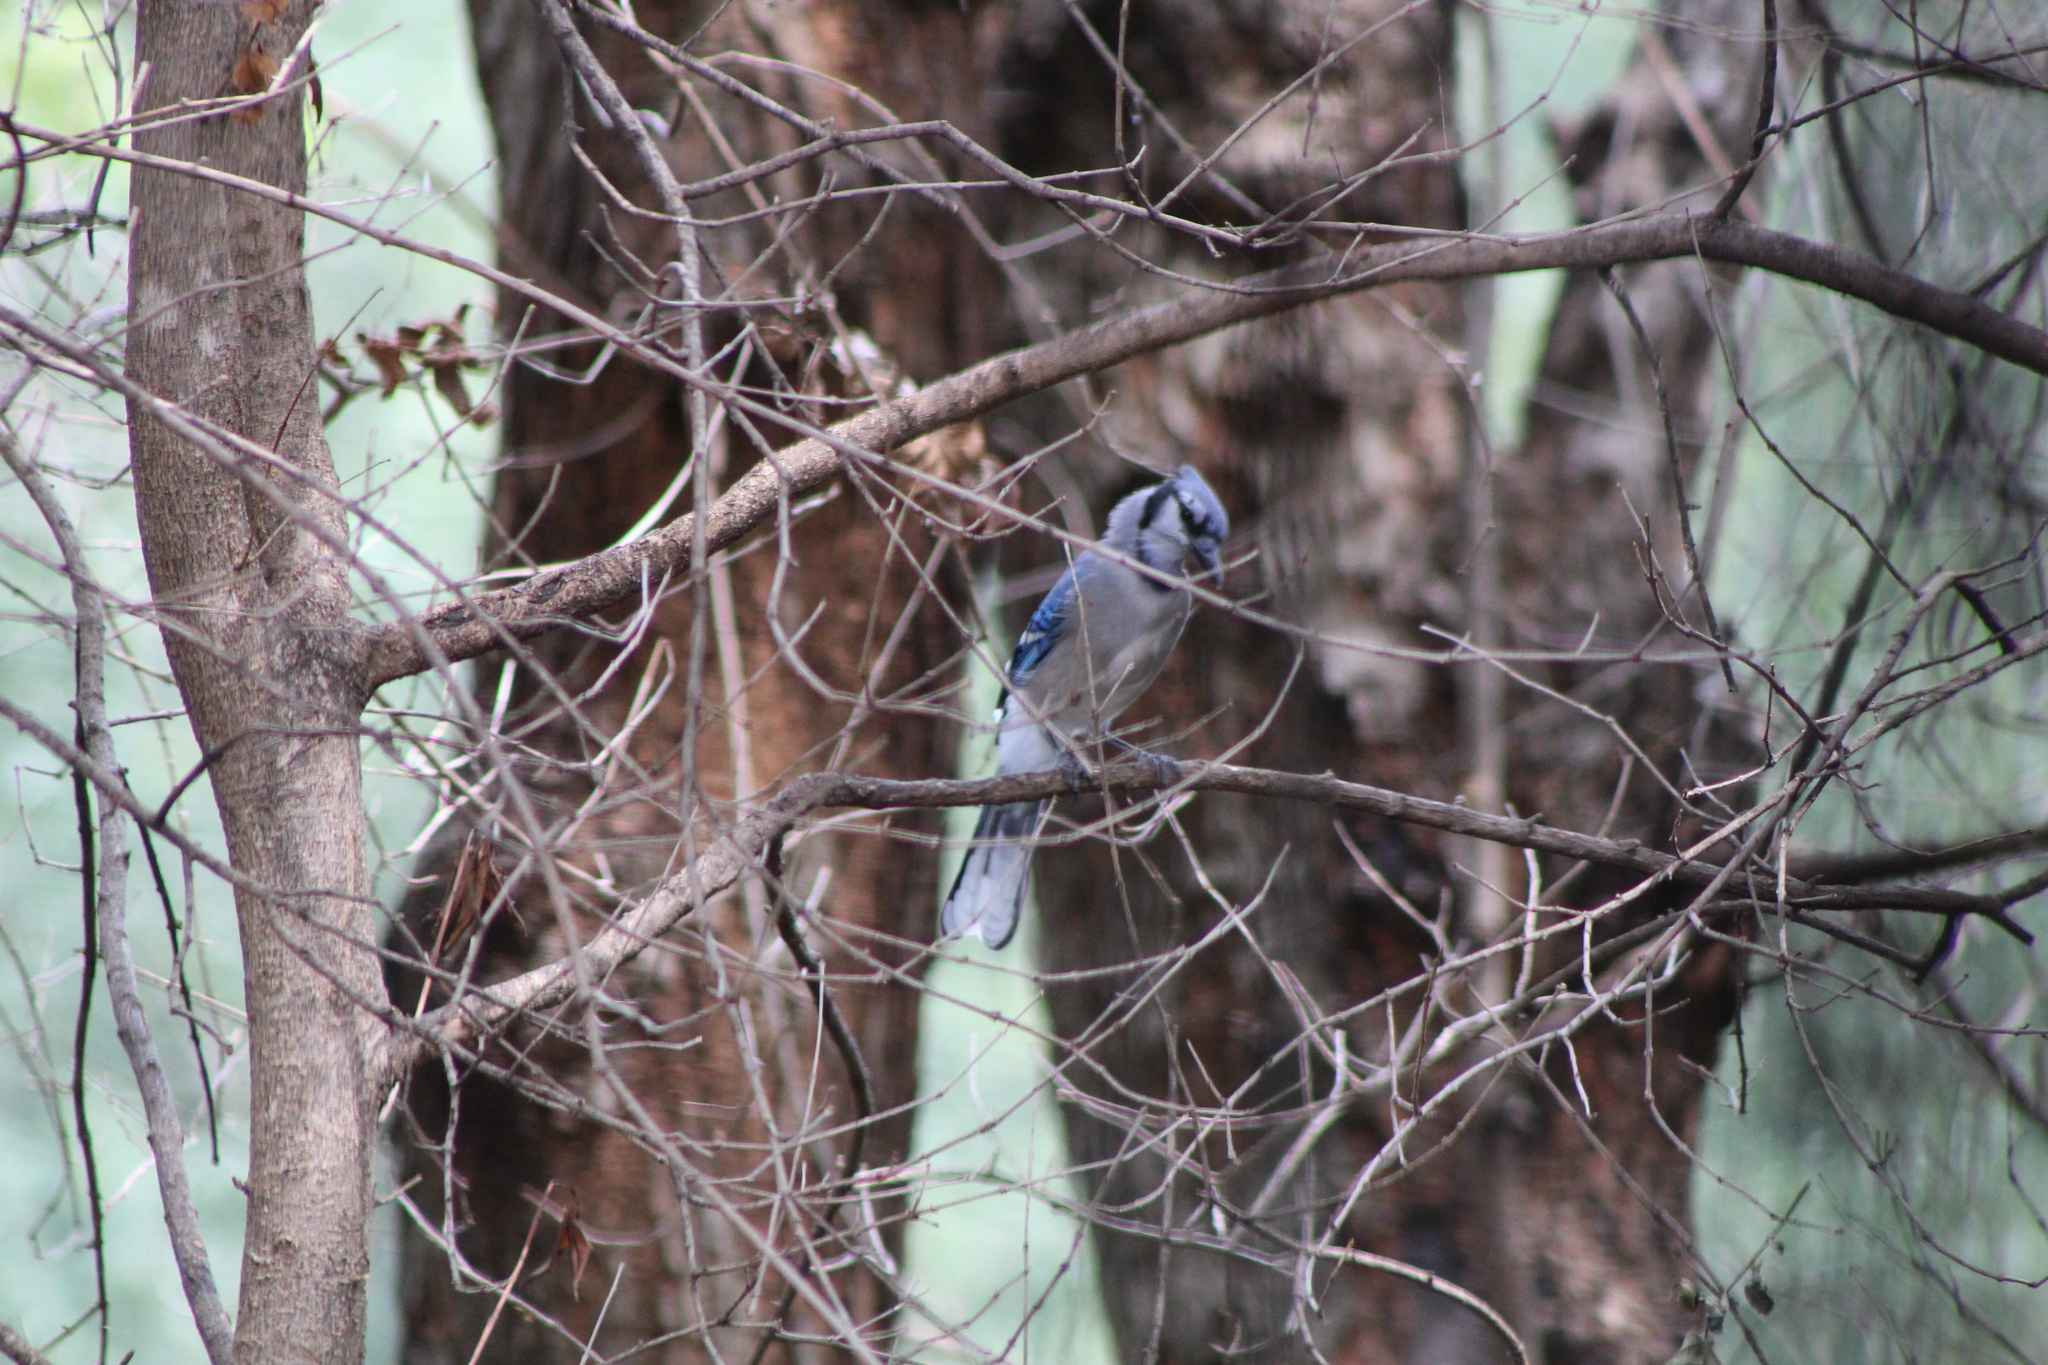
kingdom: Animalia
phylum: Chordata
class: Aves
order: Passeriformes
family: Corvidae
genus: Cyanocitta
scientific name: Cyanocitta cristata
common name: Blue jay
